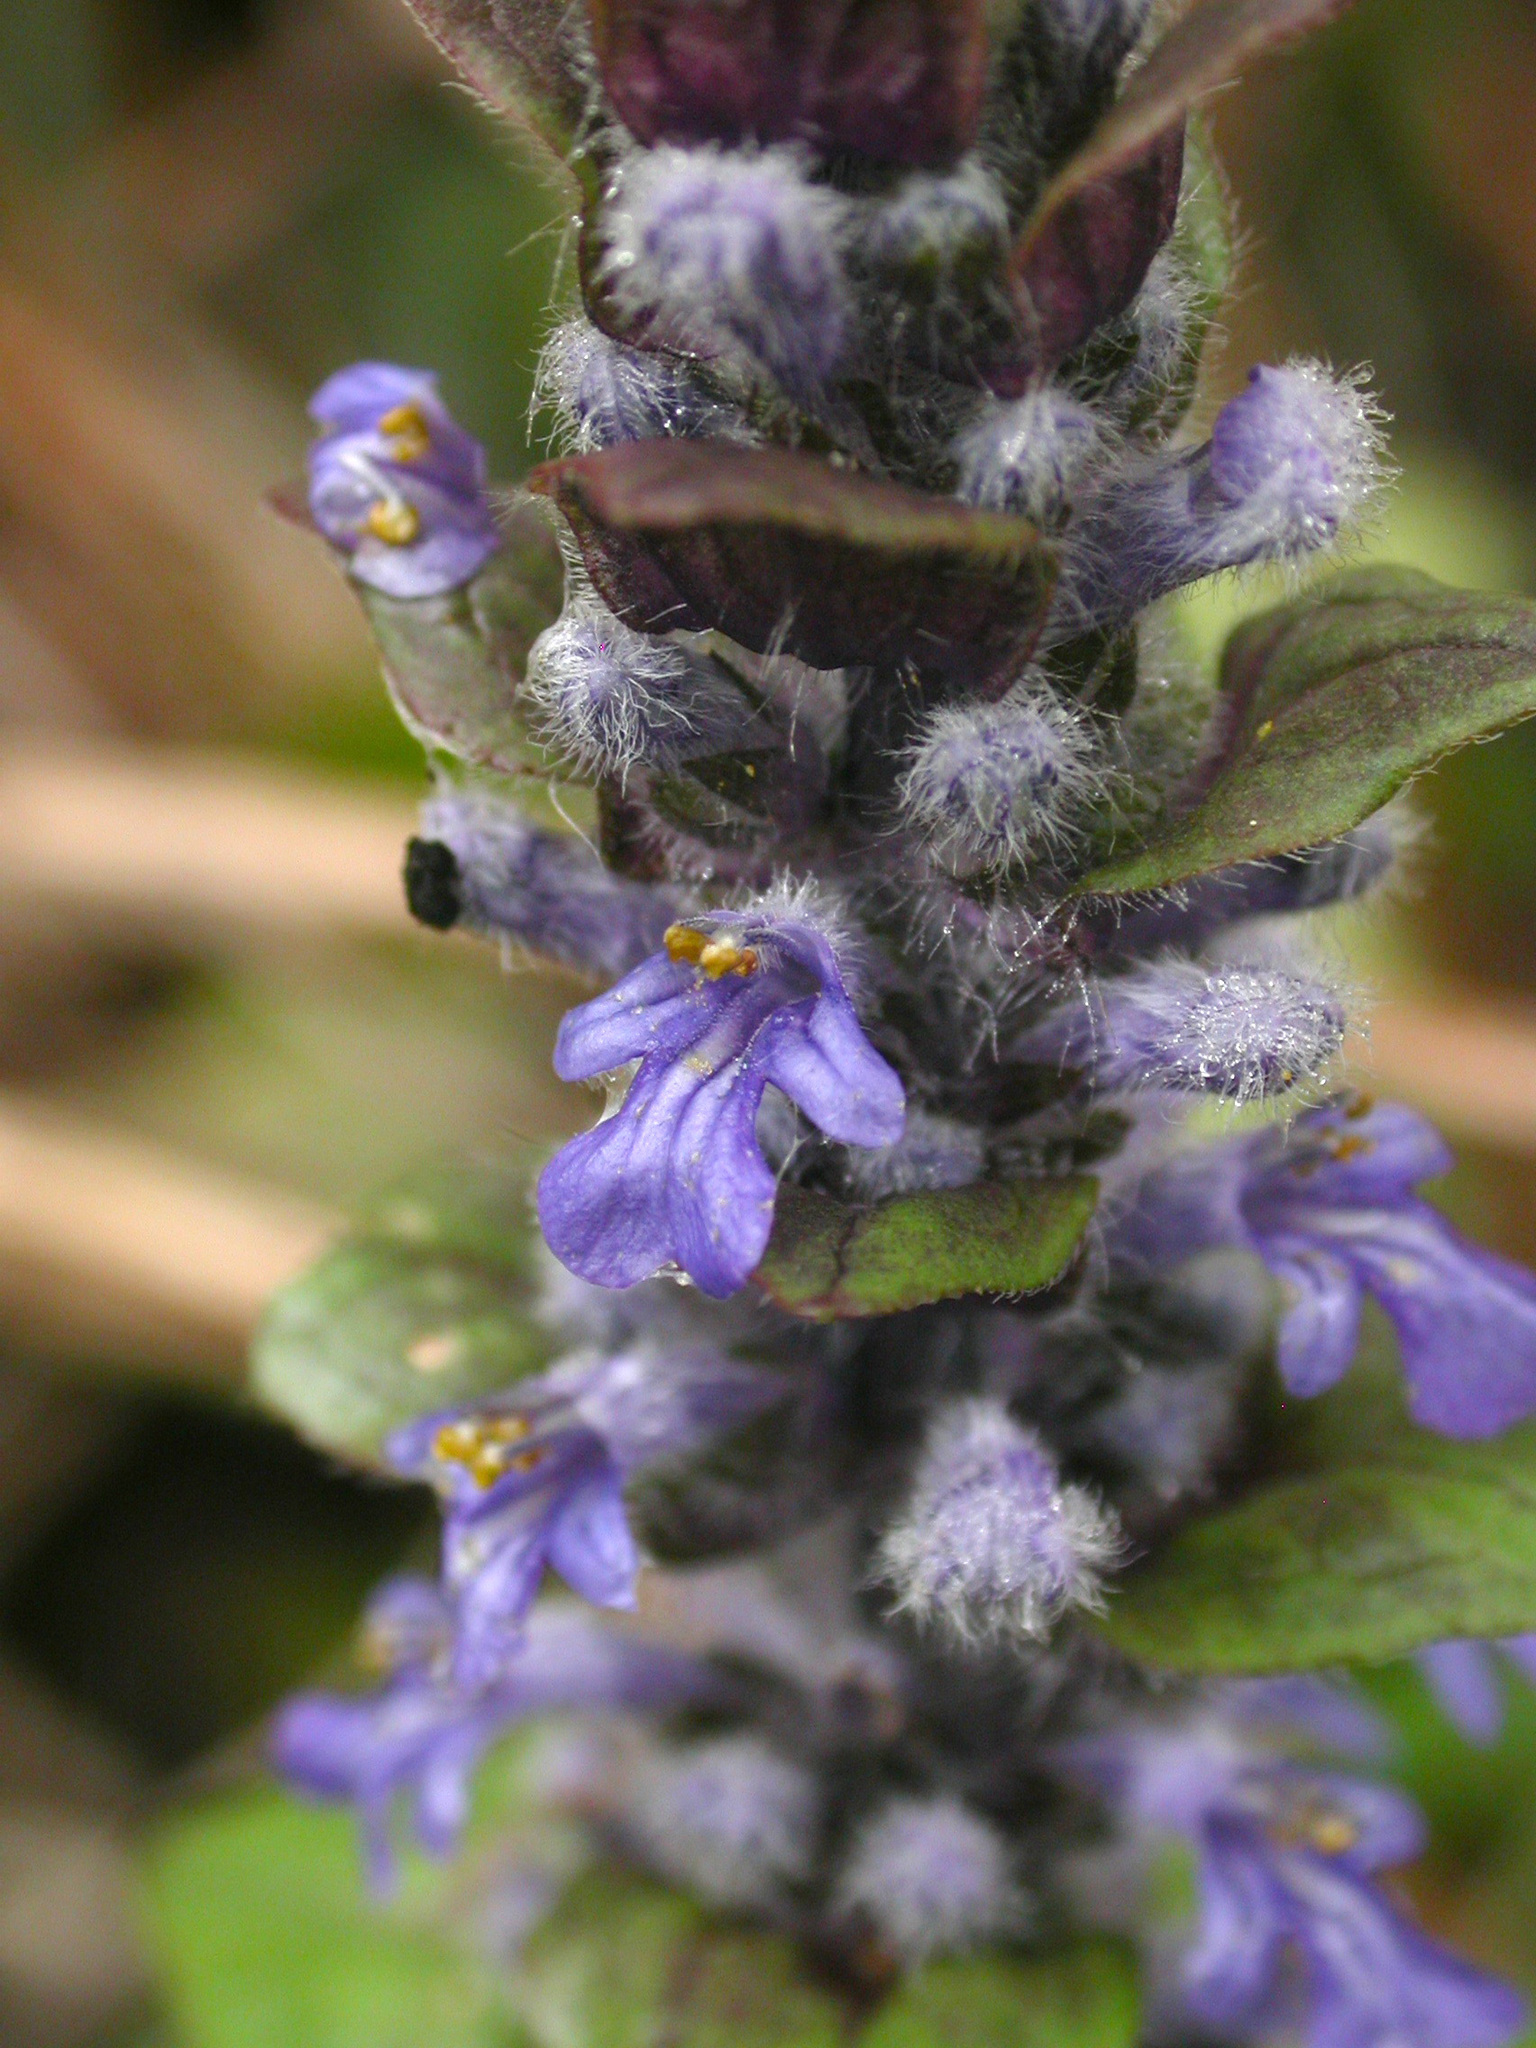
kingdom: Plantae
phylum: Tracheophyta
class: Magnoliopsida
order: Lamiales
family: Lamiaceae
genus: Ajuga
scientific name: Ajuga reptans
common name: Bugle
